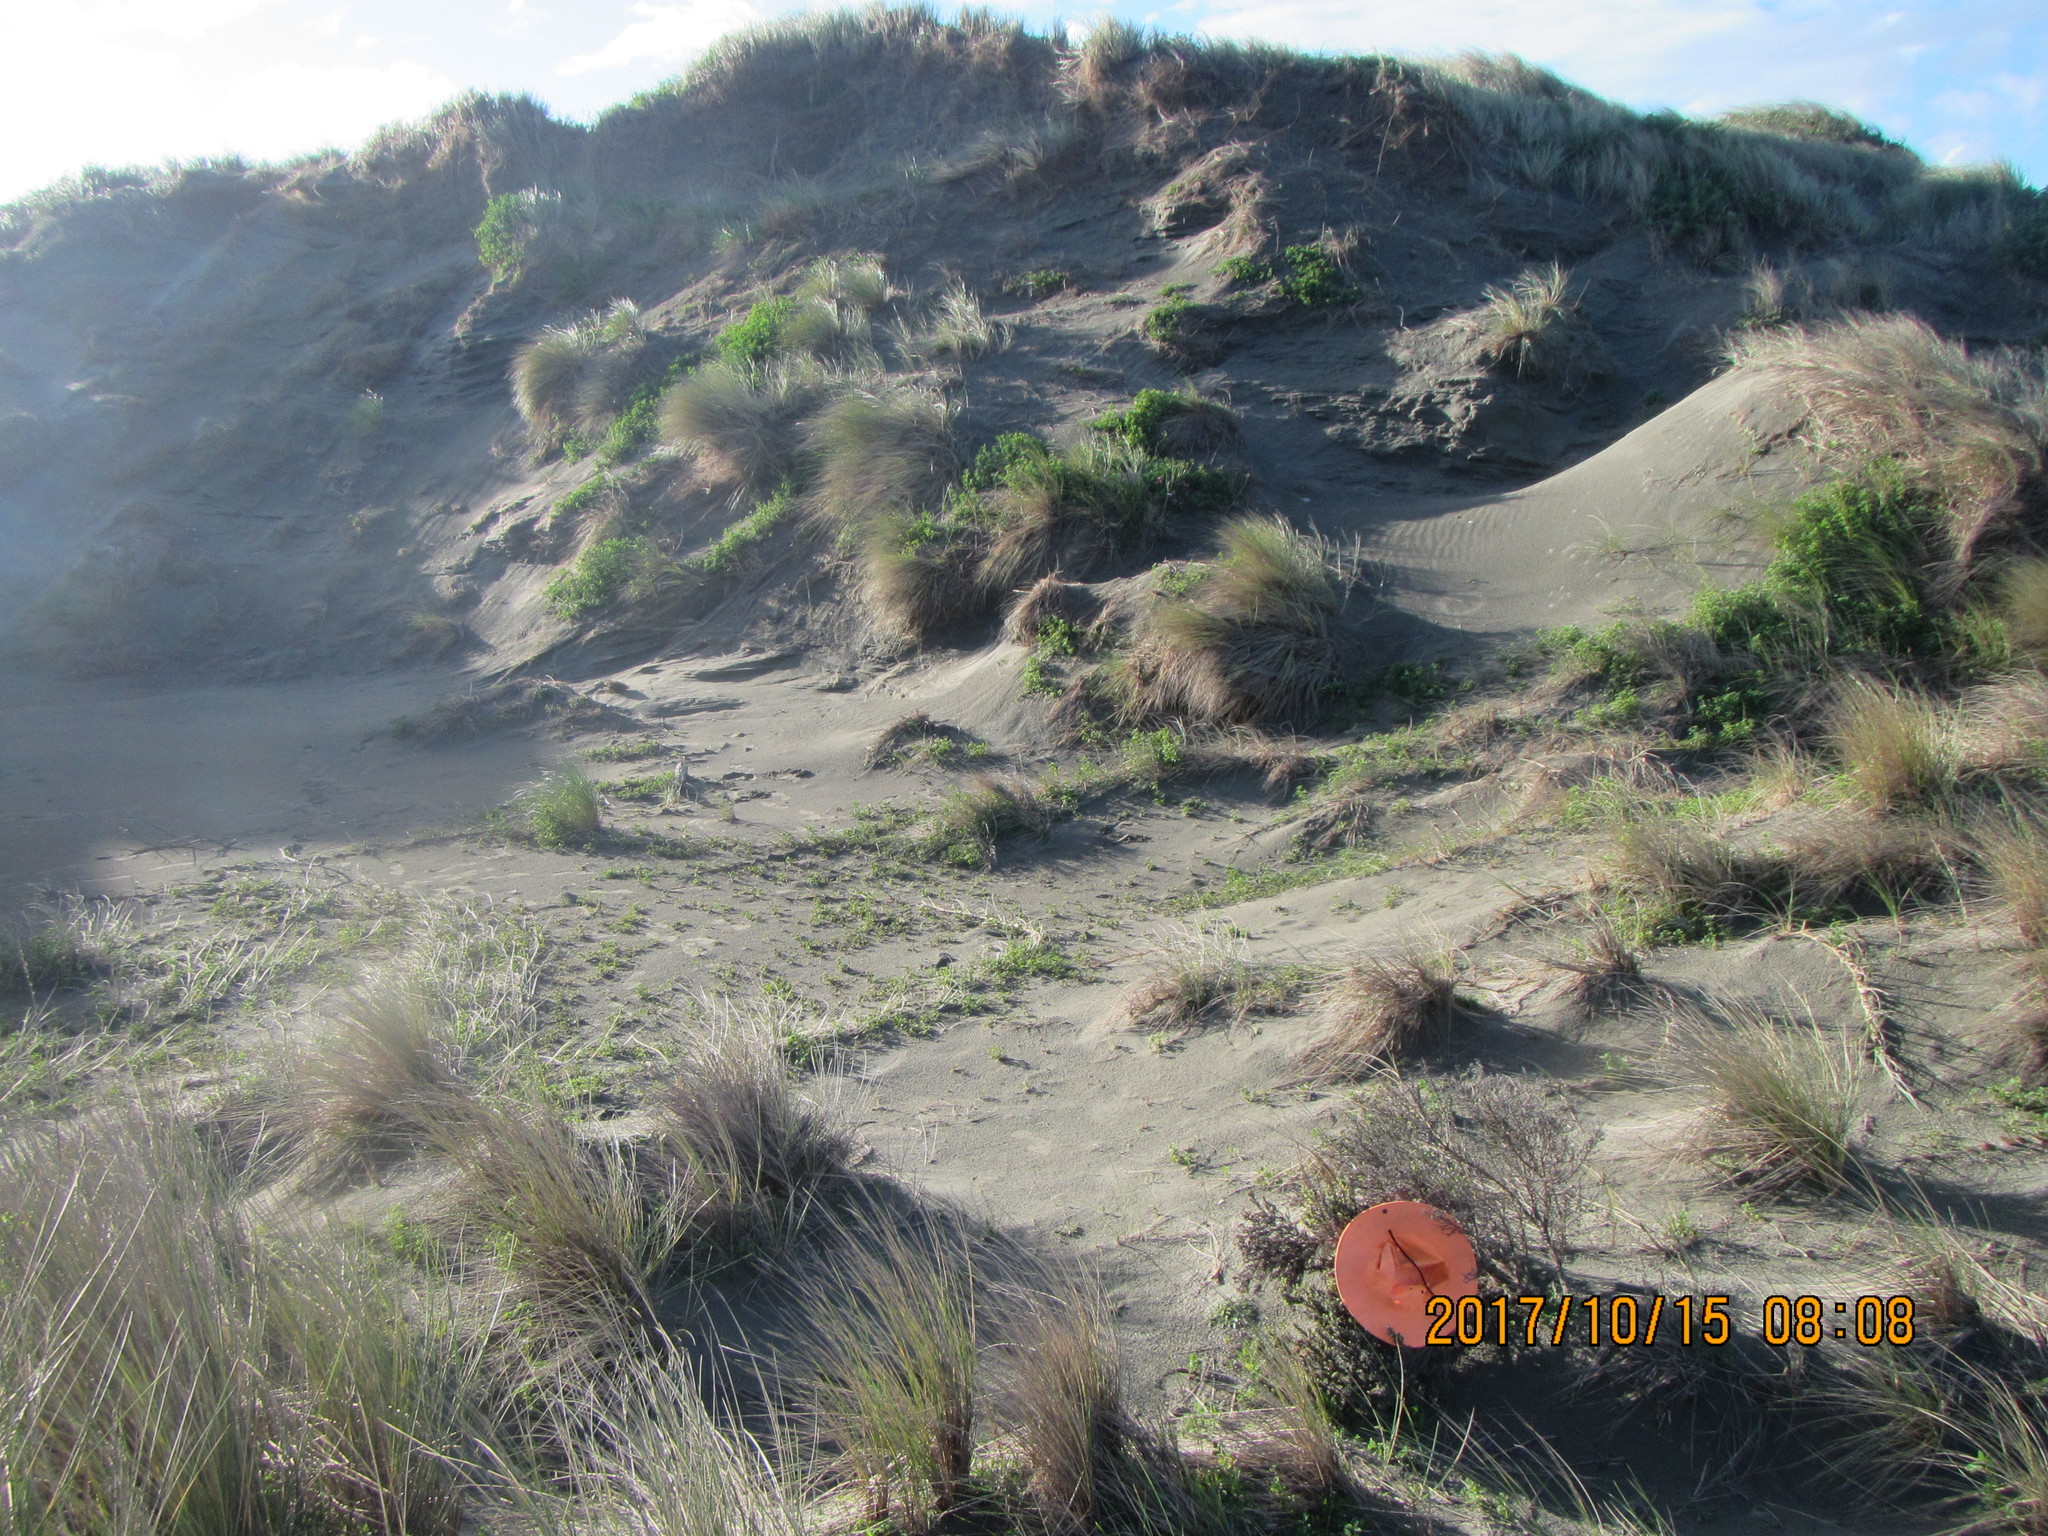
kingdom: Plantae
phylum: Tracheophyta
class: Magnoliopsida
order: Asterales
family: Asteraceae
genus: Ozothamnus
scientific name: Ozothamnus leptophyllus
